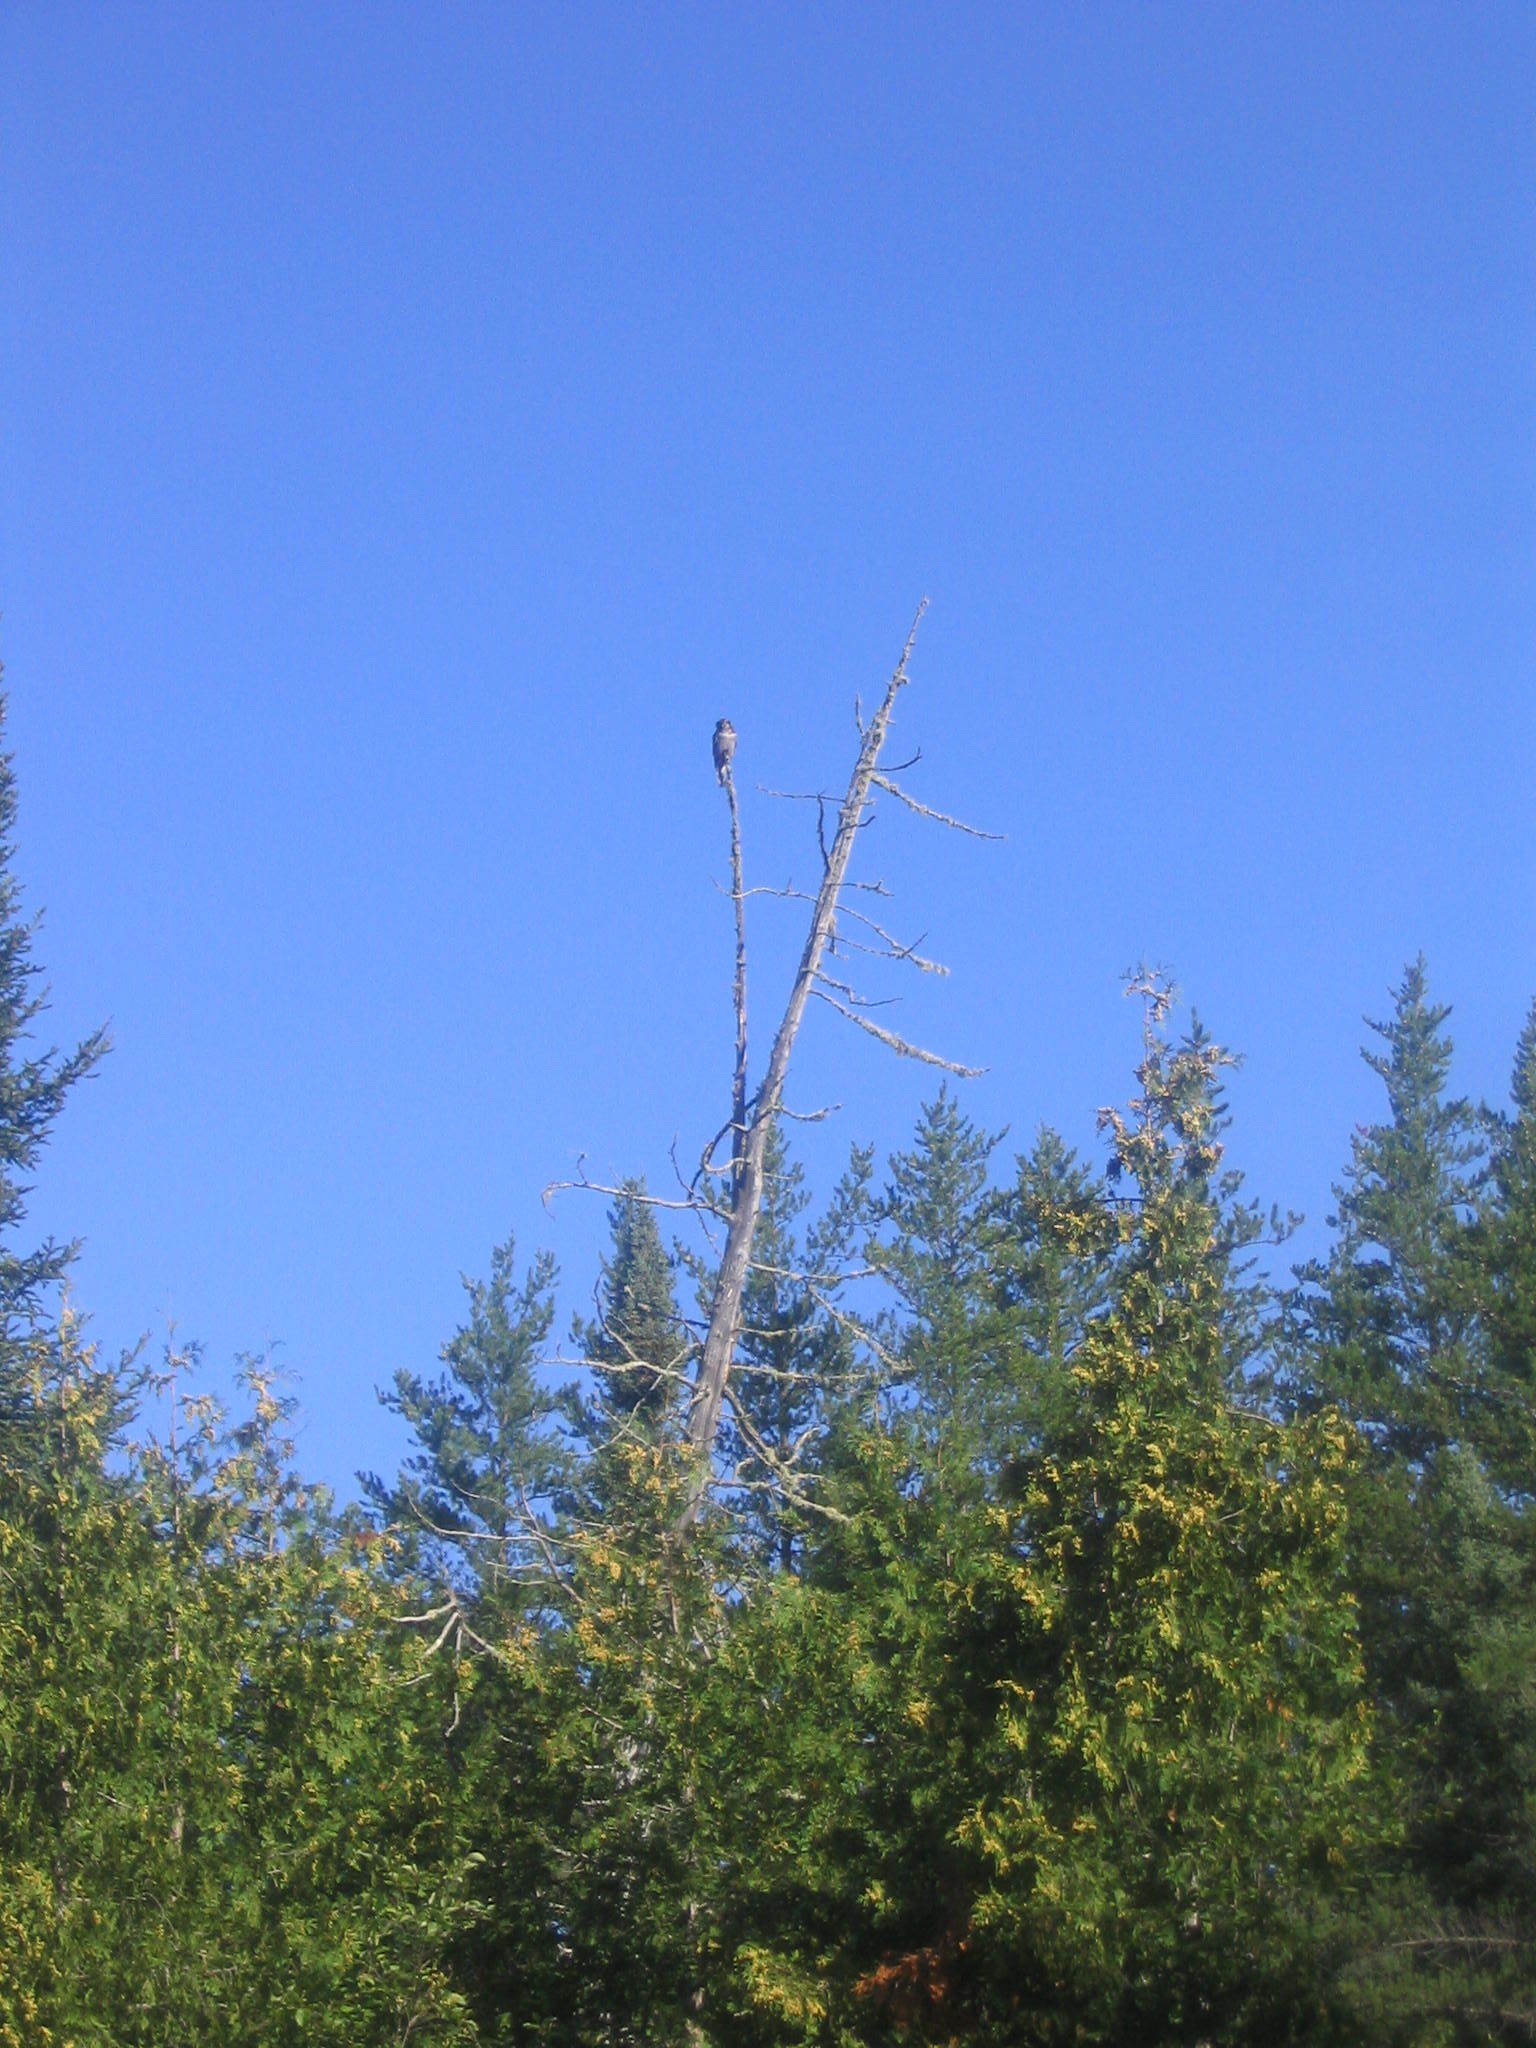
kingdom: Animalia
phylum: Chordata
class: Aves
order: Strigiformes
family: Strigidae
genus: Surnia
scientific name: Surnia ulula
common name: Northern hawk-owl
